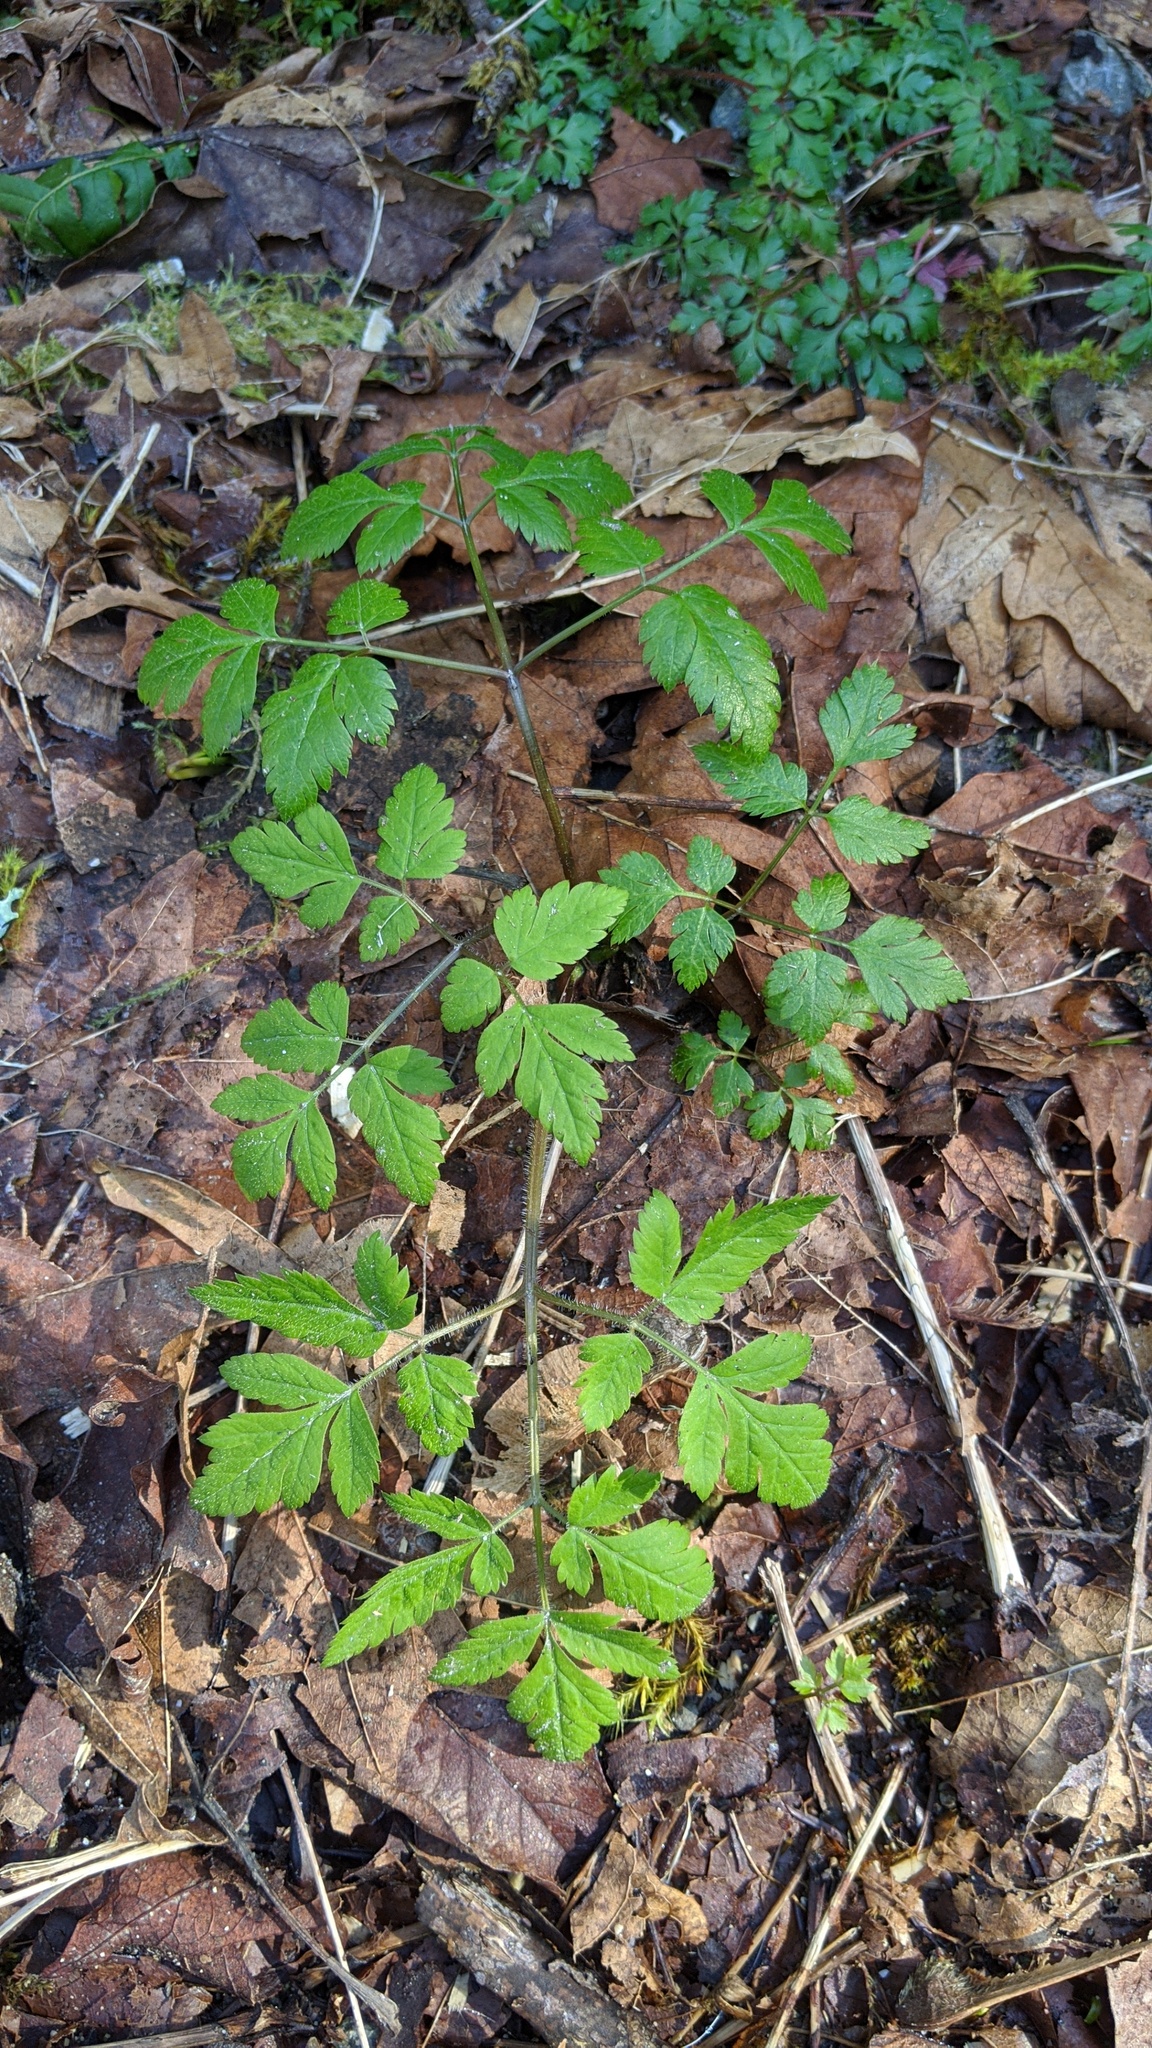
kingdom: Plantae
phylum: Tracheophyta
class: Magnoliopsida
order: Apiales
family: Apiaceae
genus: Osmorhiza
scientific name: Osmorhiza berteroi
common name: Mountain sweet cicely
